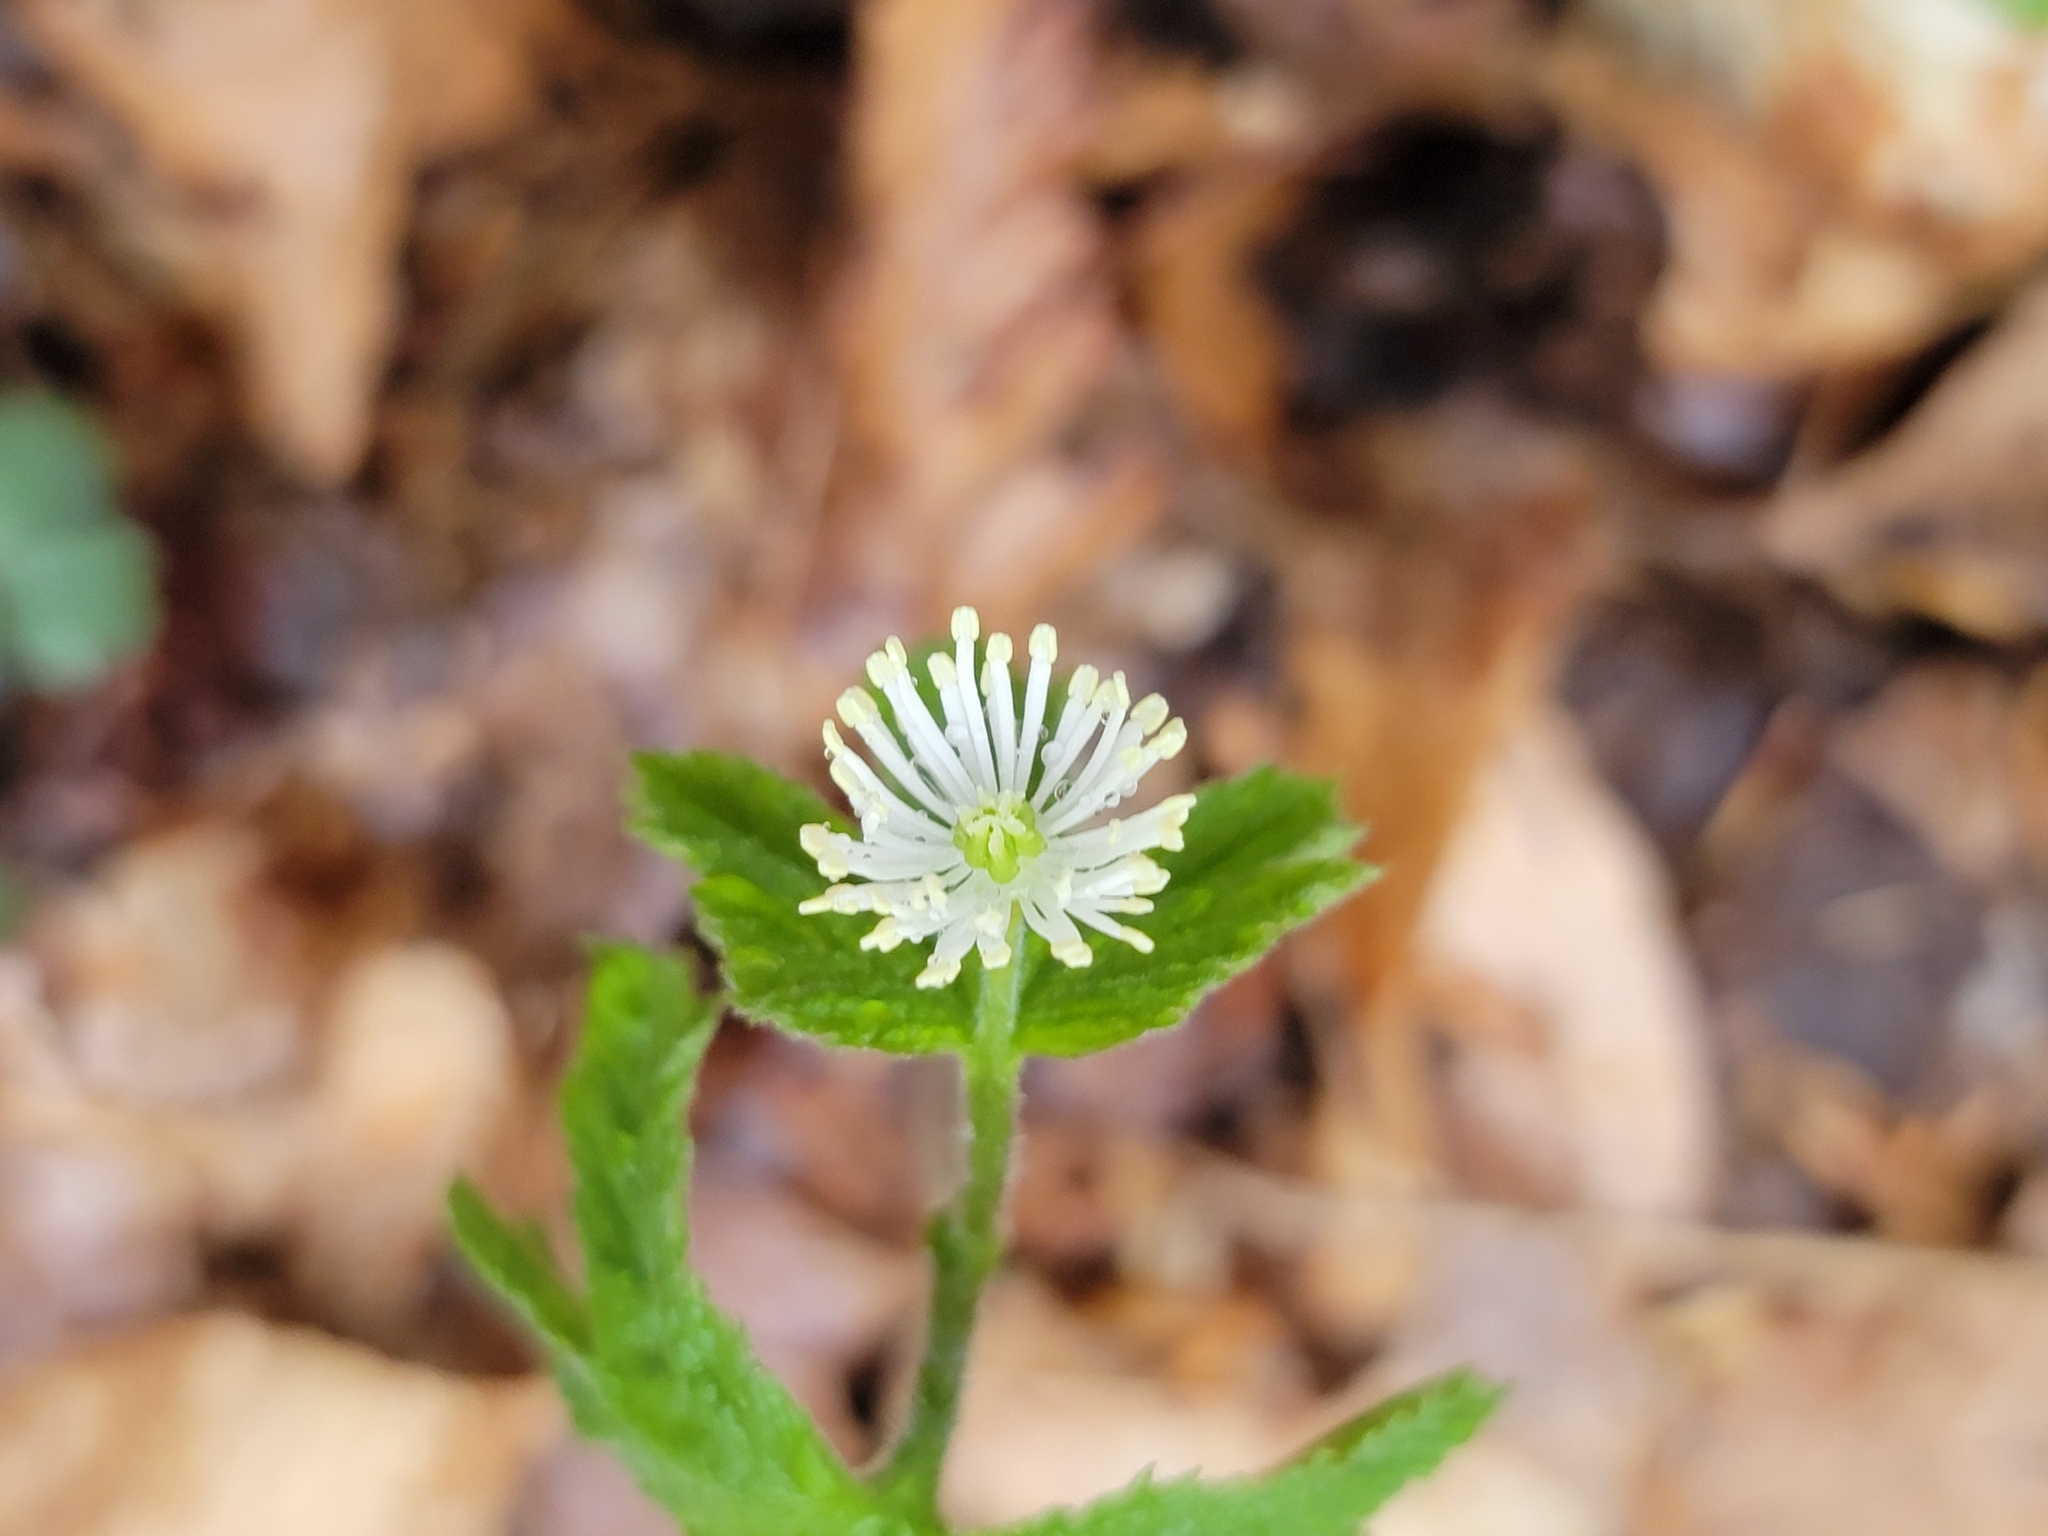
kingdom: Plantae
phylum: Tracheophyta
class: Magnoliopsida
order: Ranunculales
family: Ranunculaceae
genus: Hydrastis
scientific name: Hydrastis canadensis
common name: Goldenseal
